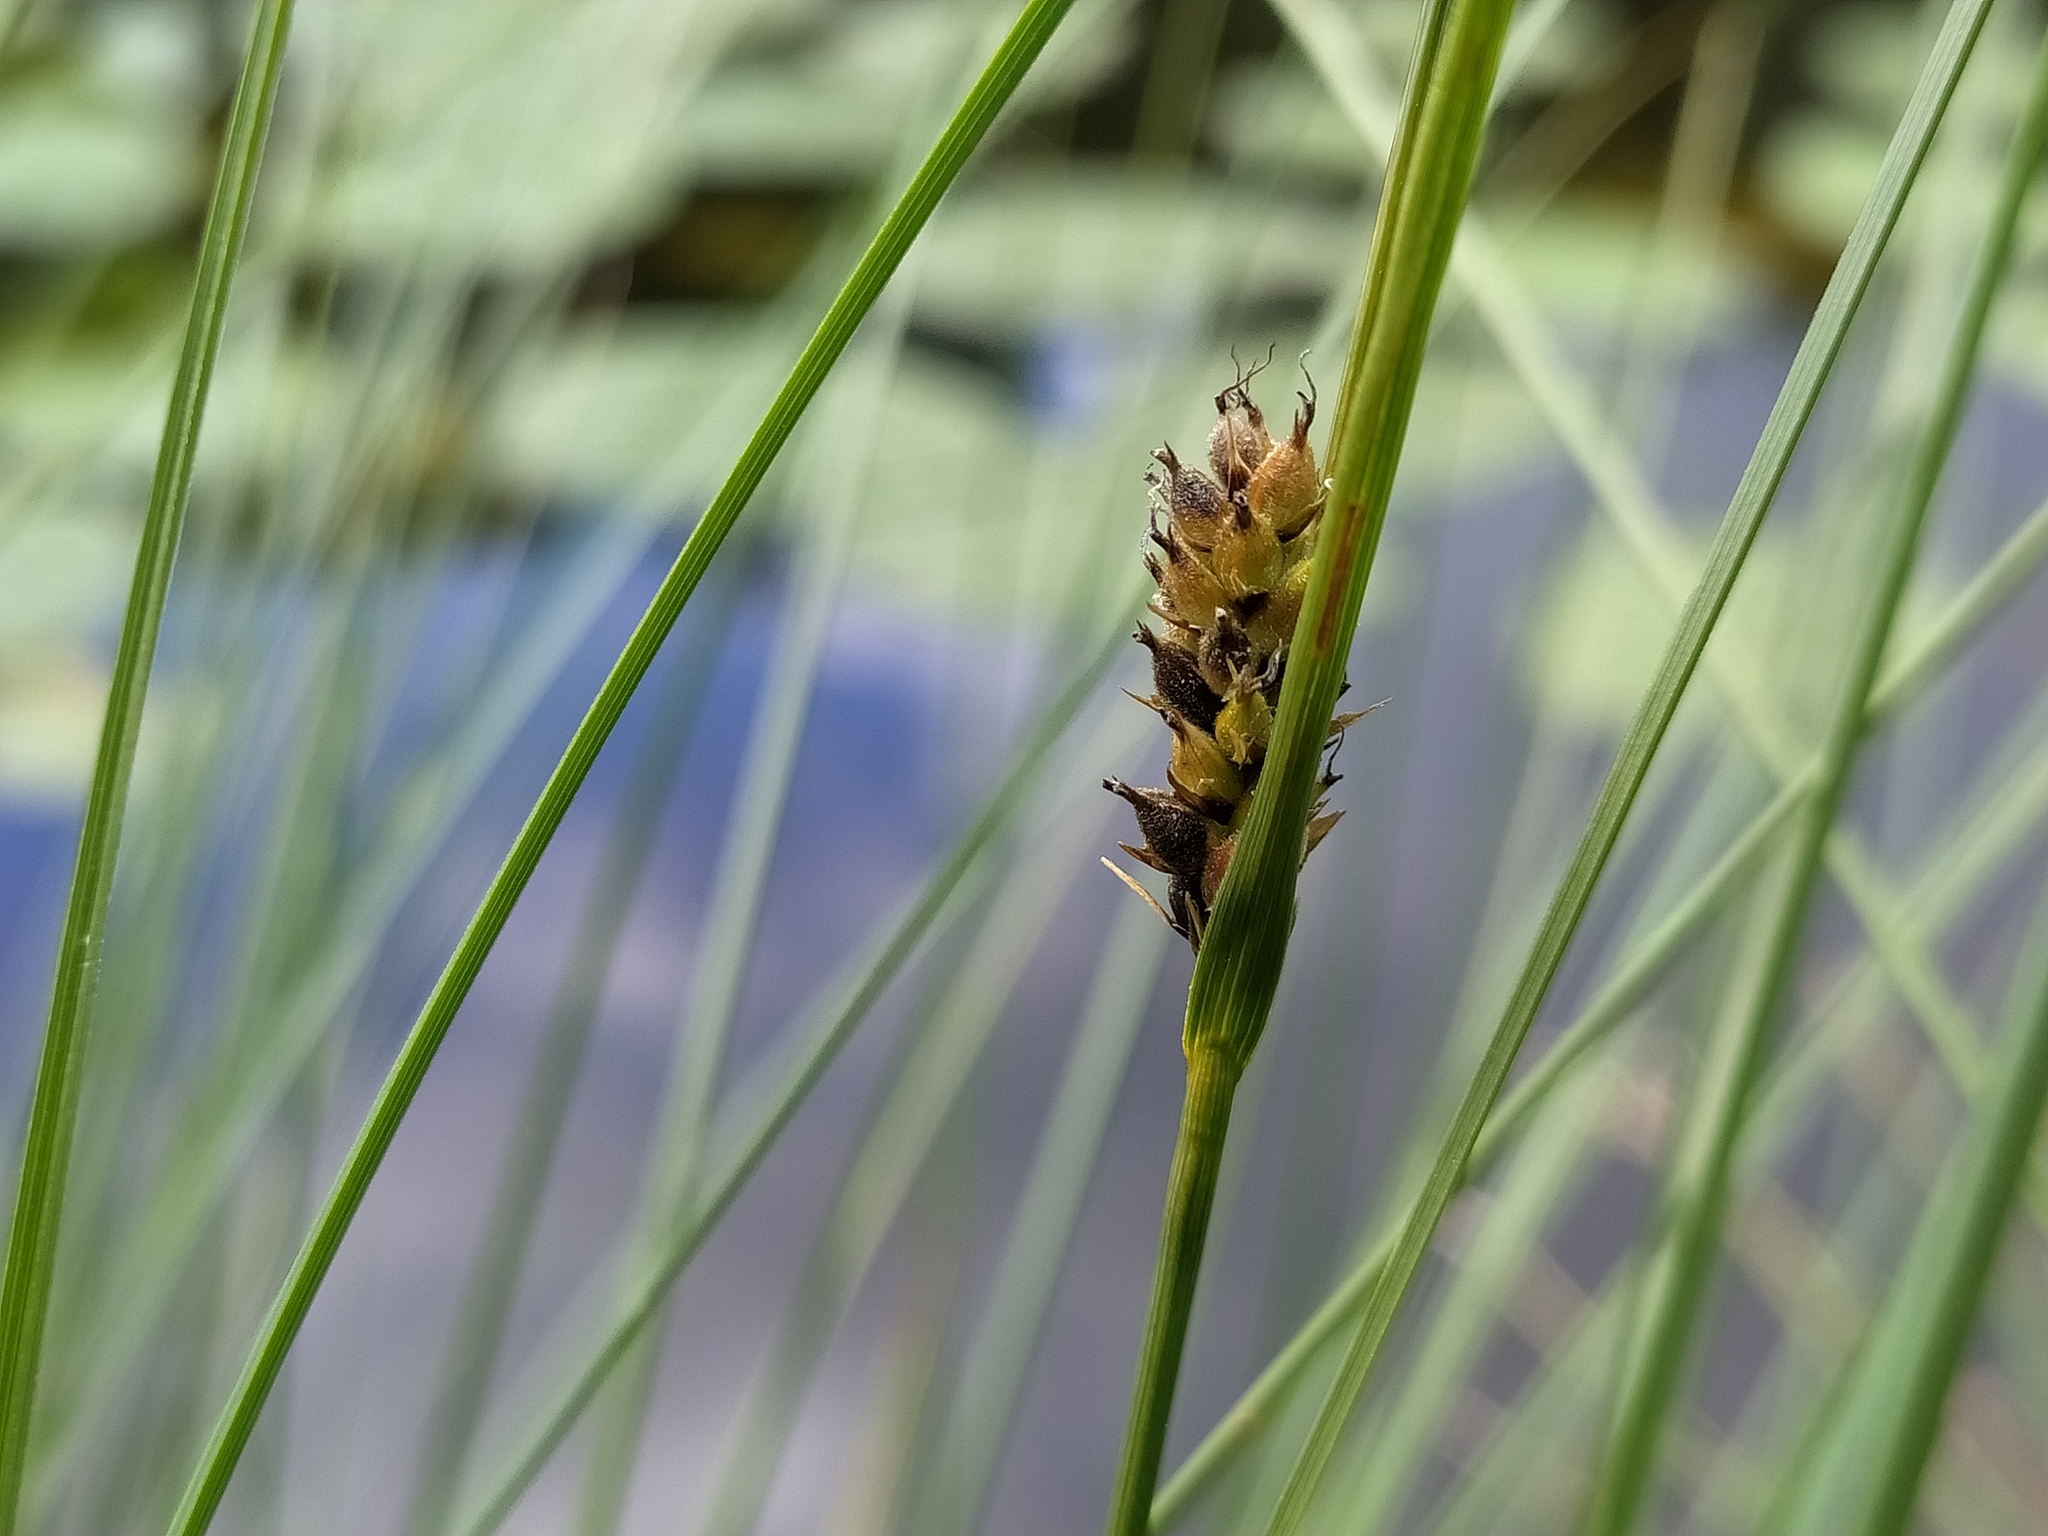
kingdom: Plantae
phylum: Tracheophyta
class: Liliopsida
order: Poales
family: Cyperaceae
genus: Carex
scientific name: Carex lasiocarpa
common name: Slender sedge
